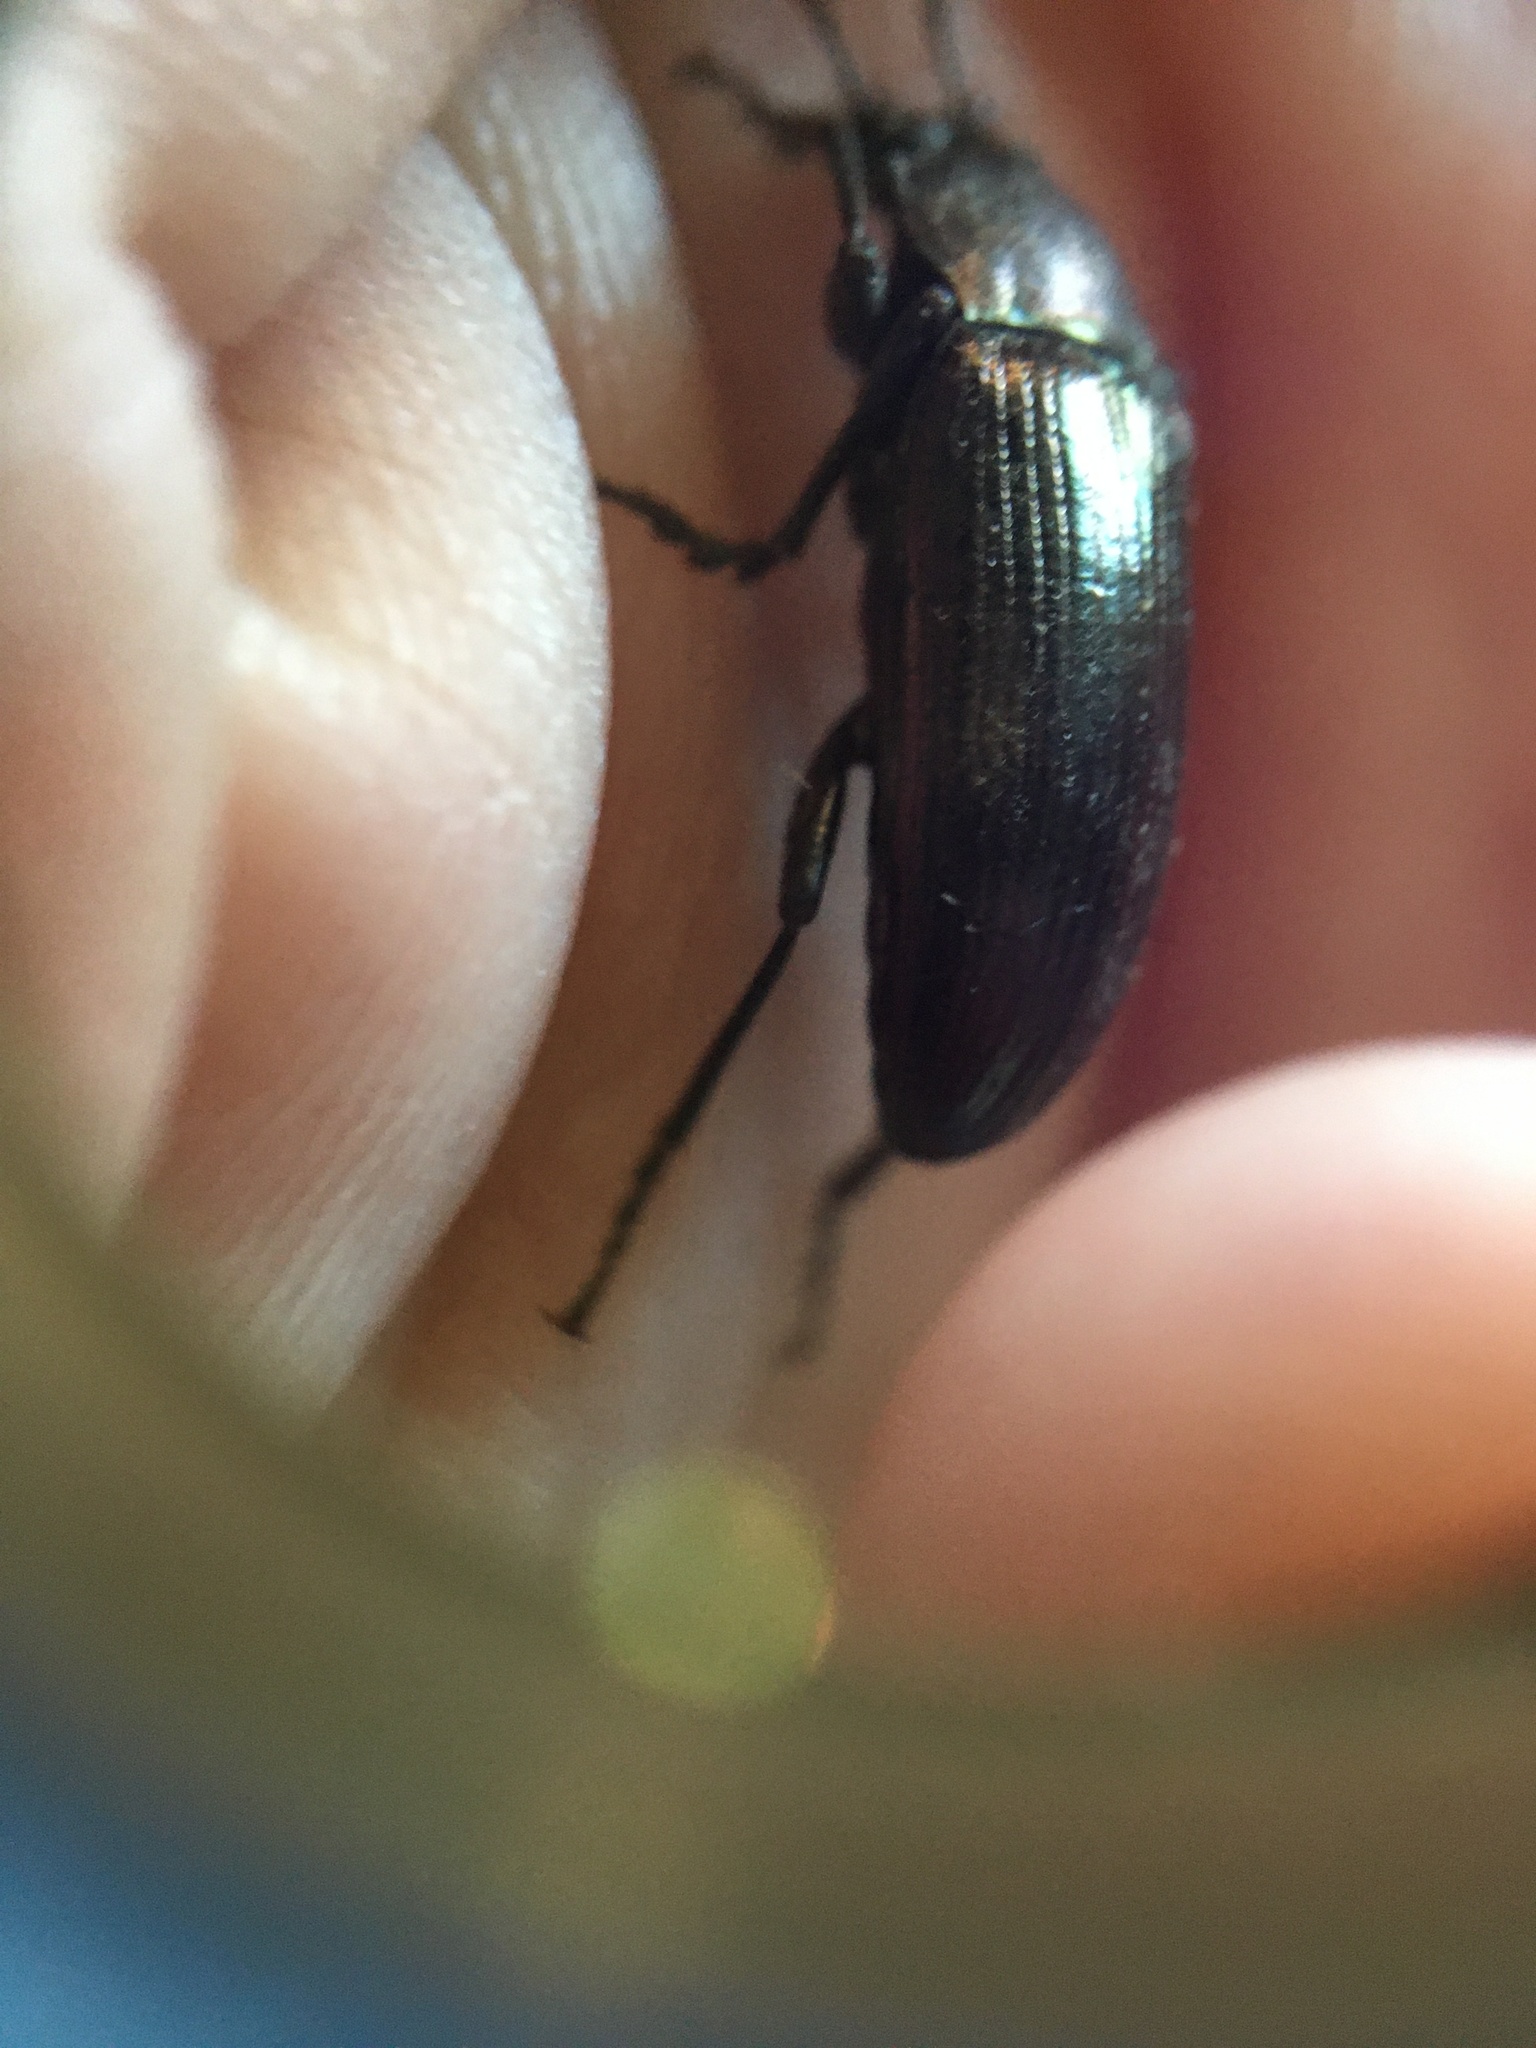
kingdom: Animalia
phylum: Arthropoda
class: Insecta
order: Coleoptera
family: Tenebrionidae
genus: Tarpela
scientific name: Tarpela undulata
